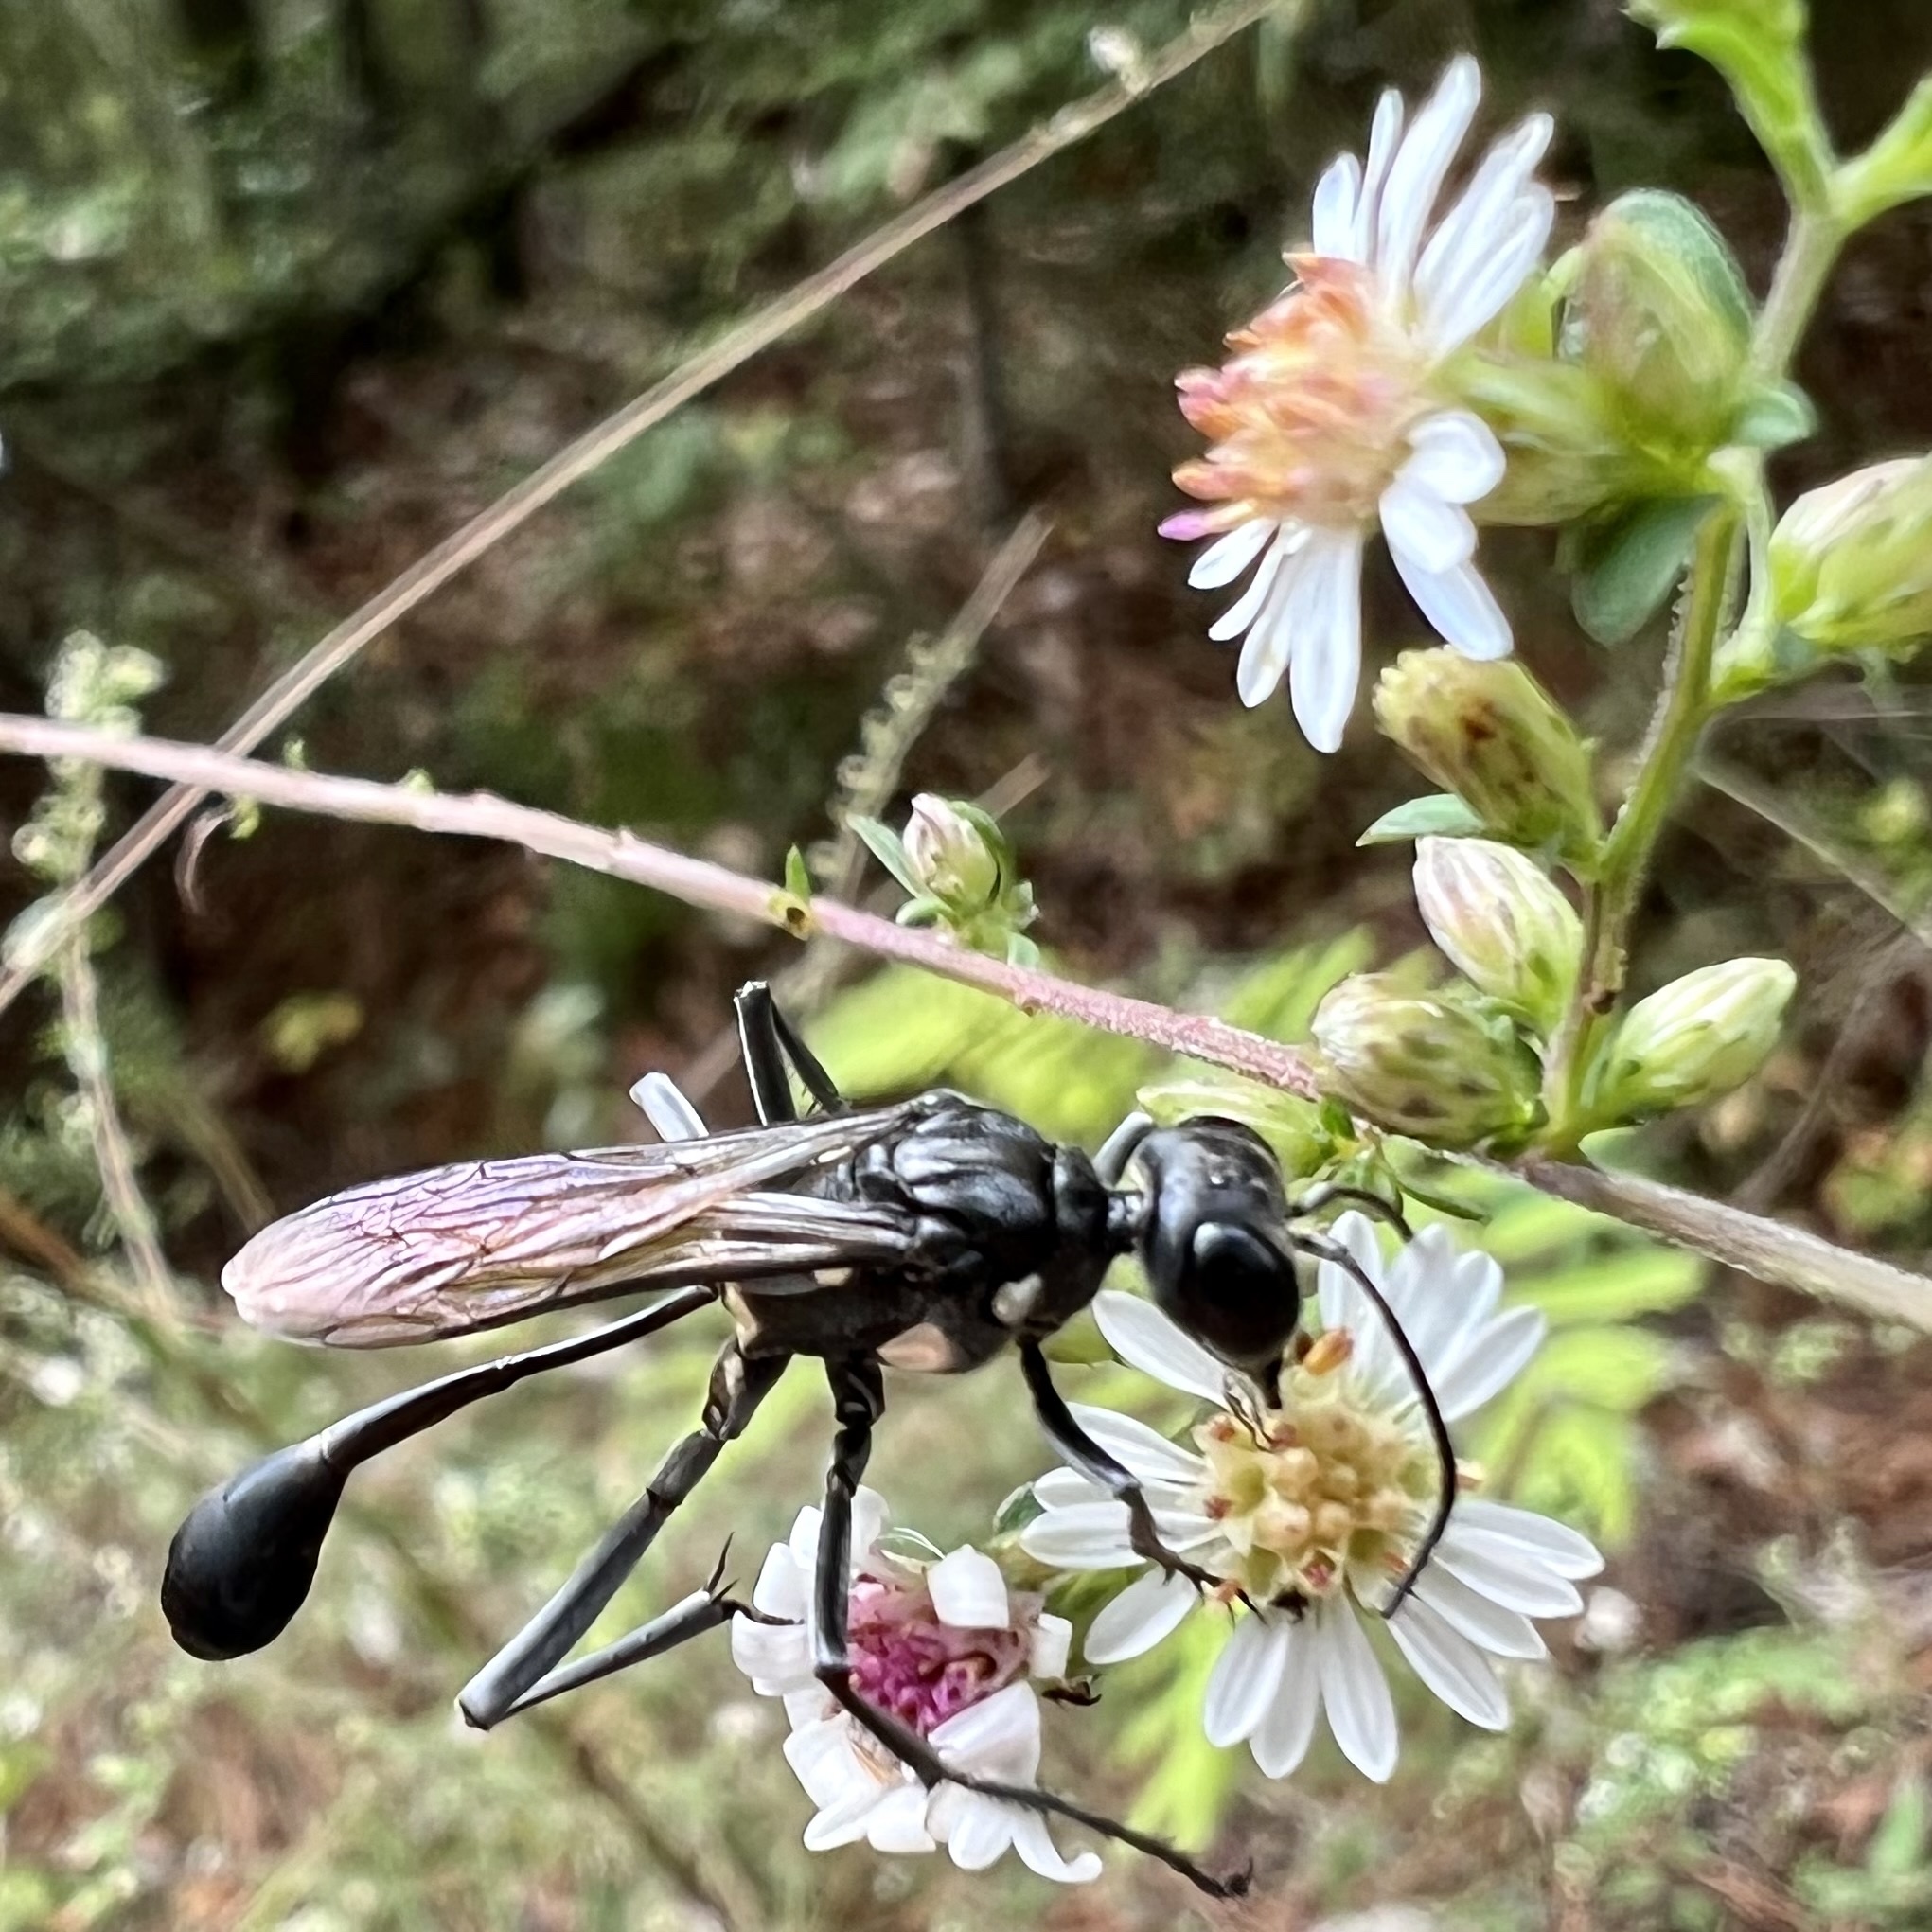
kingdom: Animalia
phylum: Arthropoda
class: Insecta
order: Hymenoptera
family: Sphecidae
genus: Eremnophila
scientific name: Eremnophila aureonotata
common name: Gold-marked thread-waisted wasp
